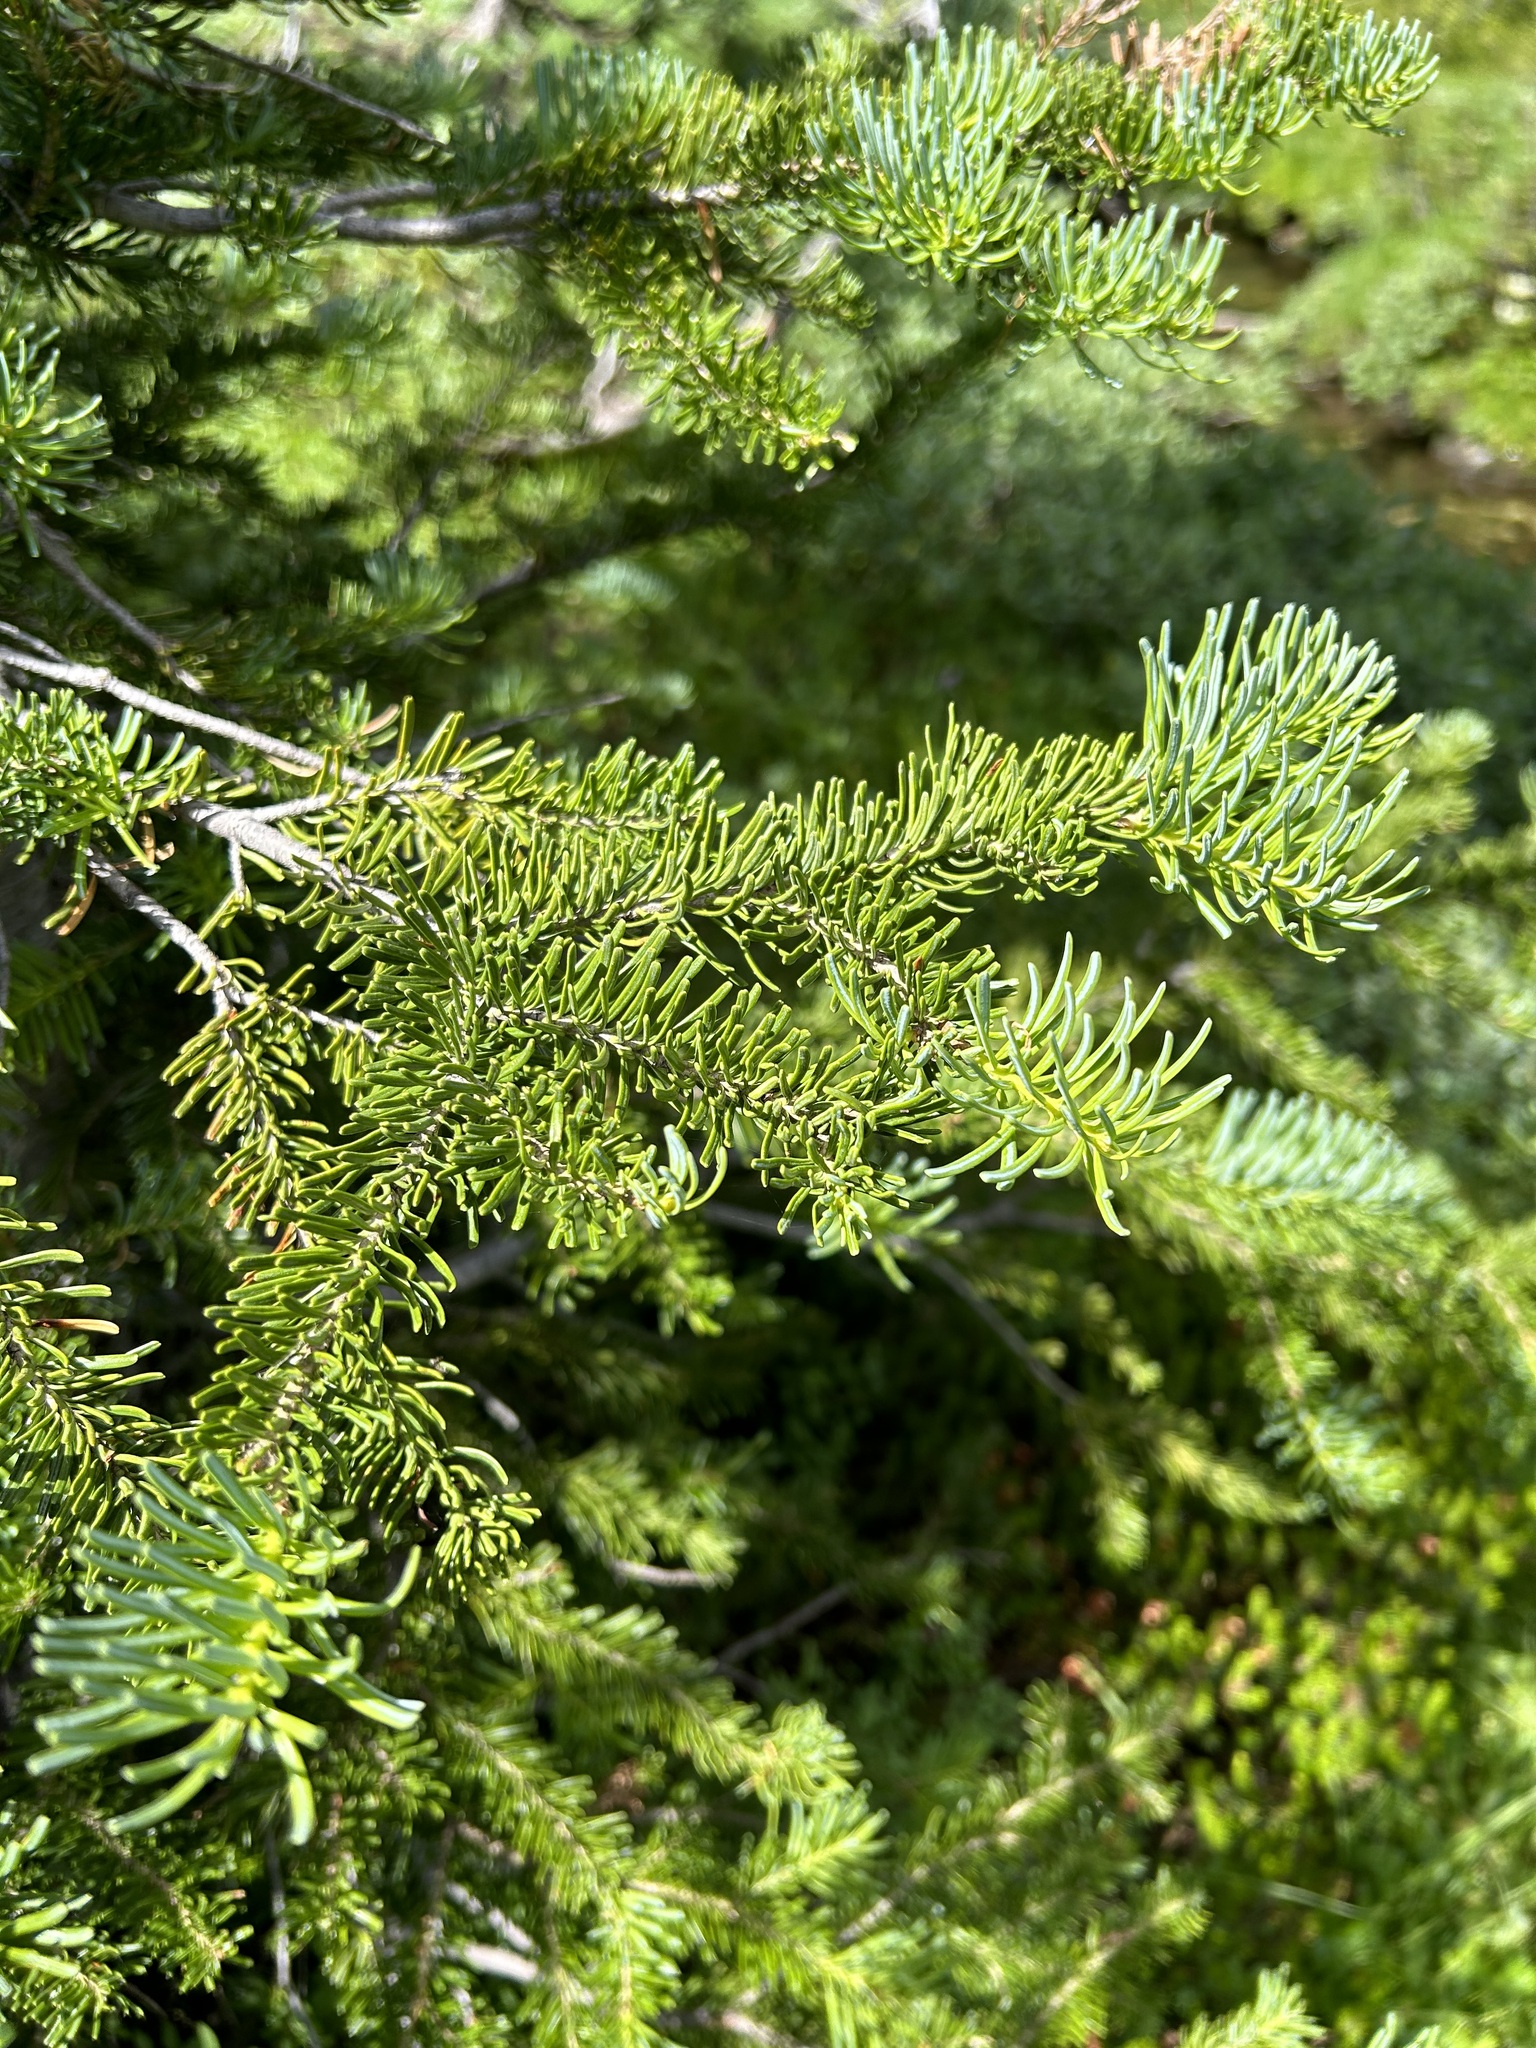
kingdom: Plantae
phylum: Tracheophyta
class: Pinopsida
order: Pinales
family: Pinaceae
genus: Abies
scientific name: Abies lasiocarpa
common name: Subalpine fir
